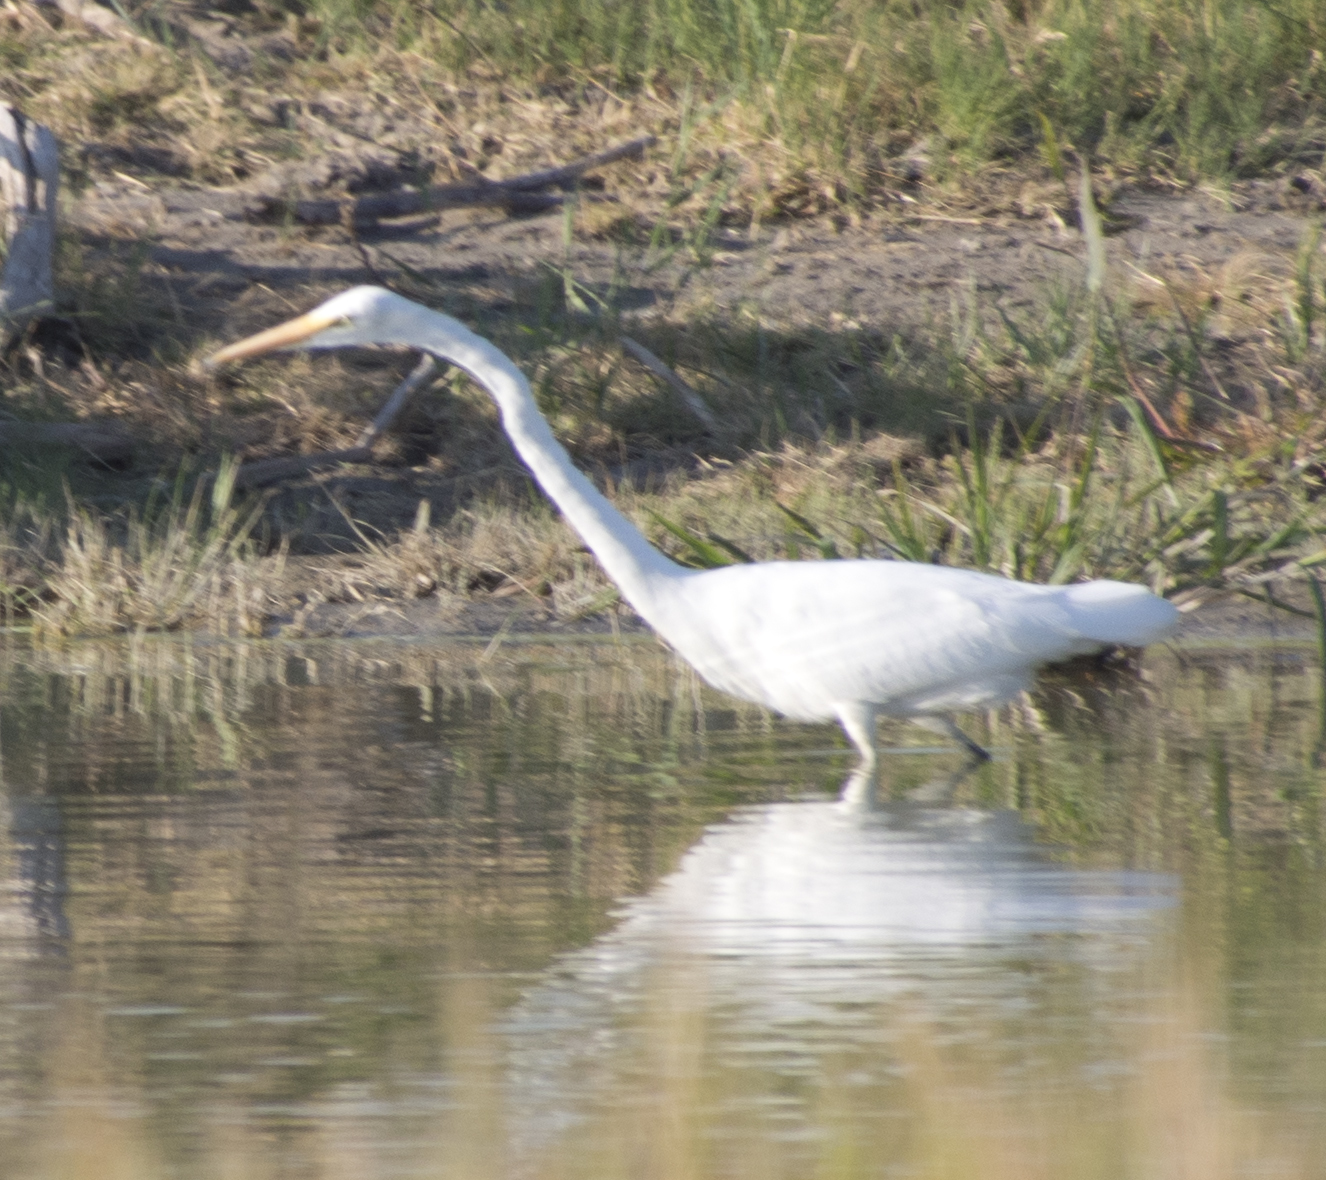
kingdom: Animalia
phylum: Chordata
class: Aves
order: Pelecaniformes
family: Ardeidae
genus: Ardea
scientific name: Ardea alba
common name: Great egret
